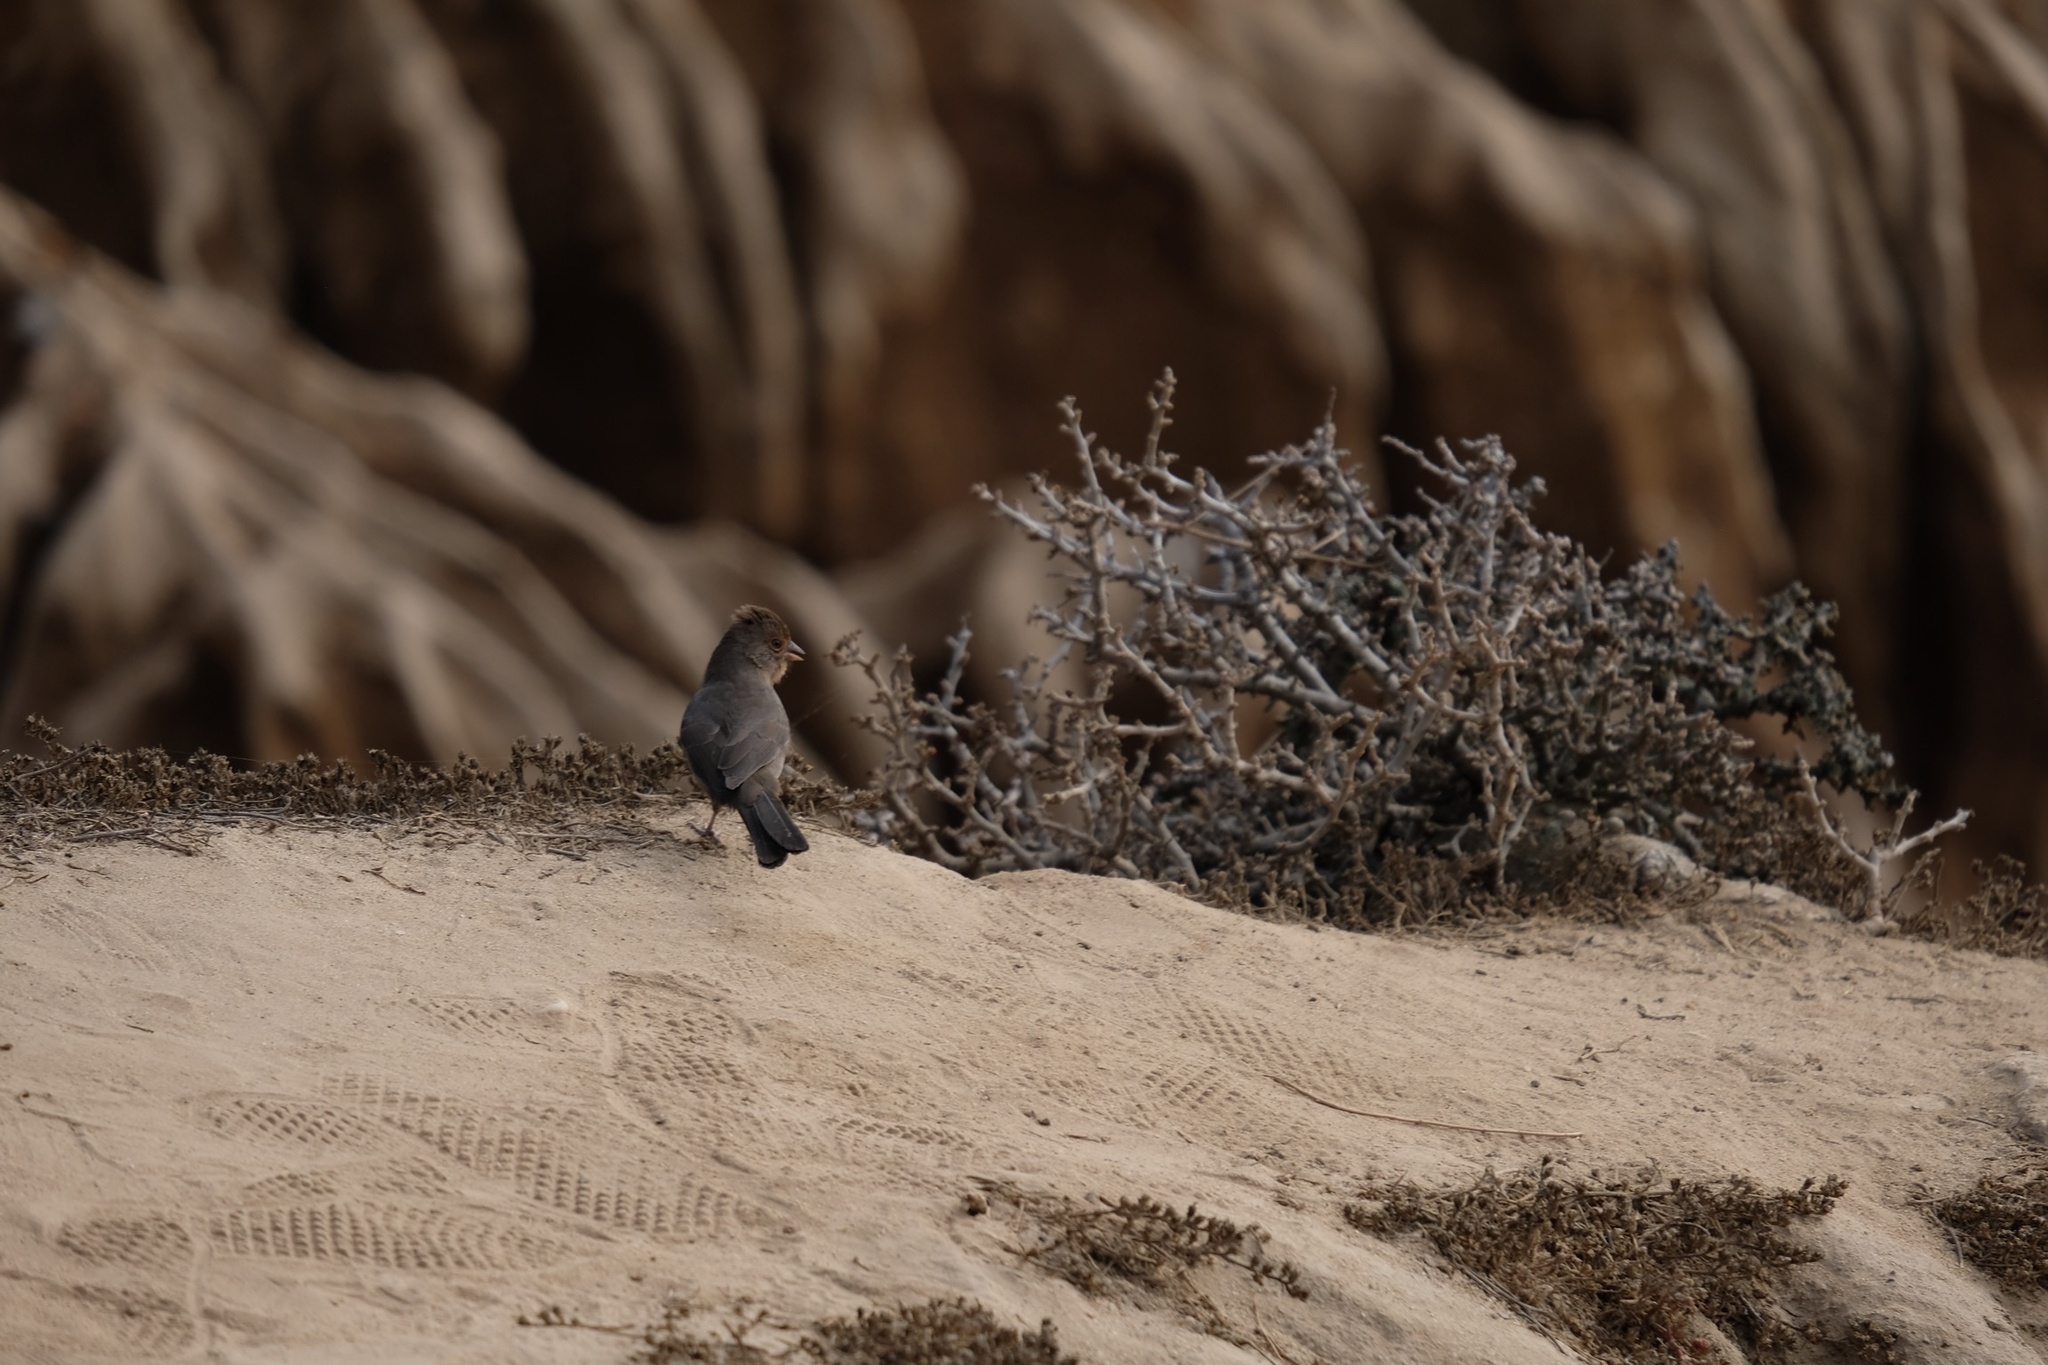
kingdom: Animalia
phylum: Chordata
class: Aves
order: Passeriformes
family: Passerellidae
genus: Melozone
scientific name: Melozone crissalis
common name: California towhee
